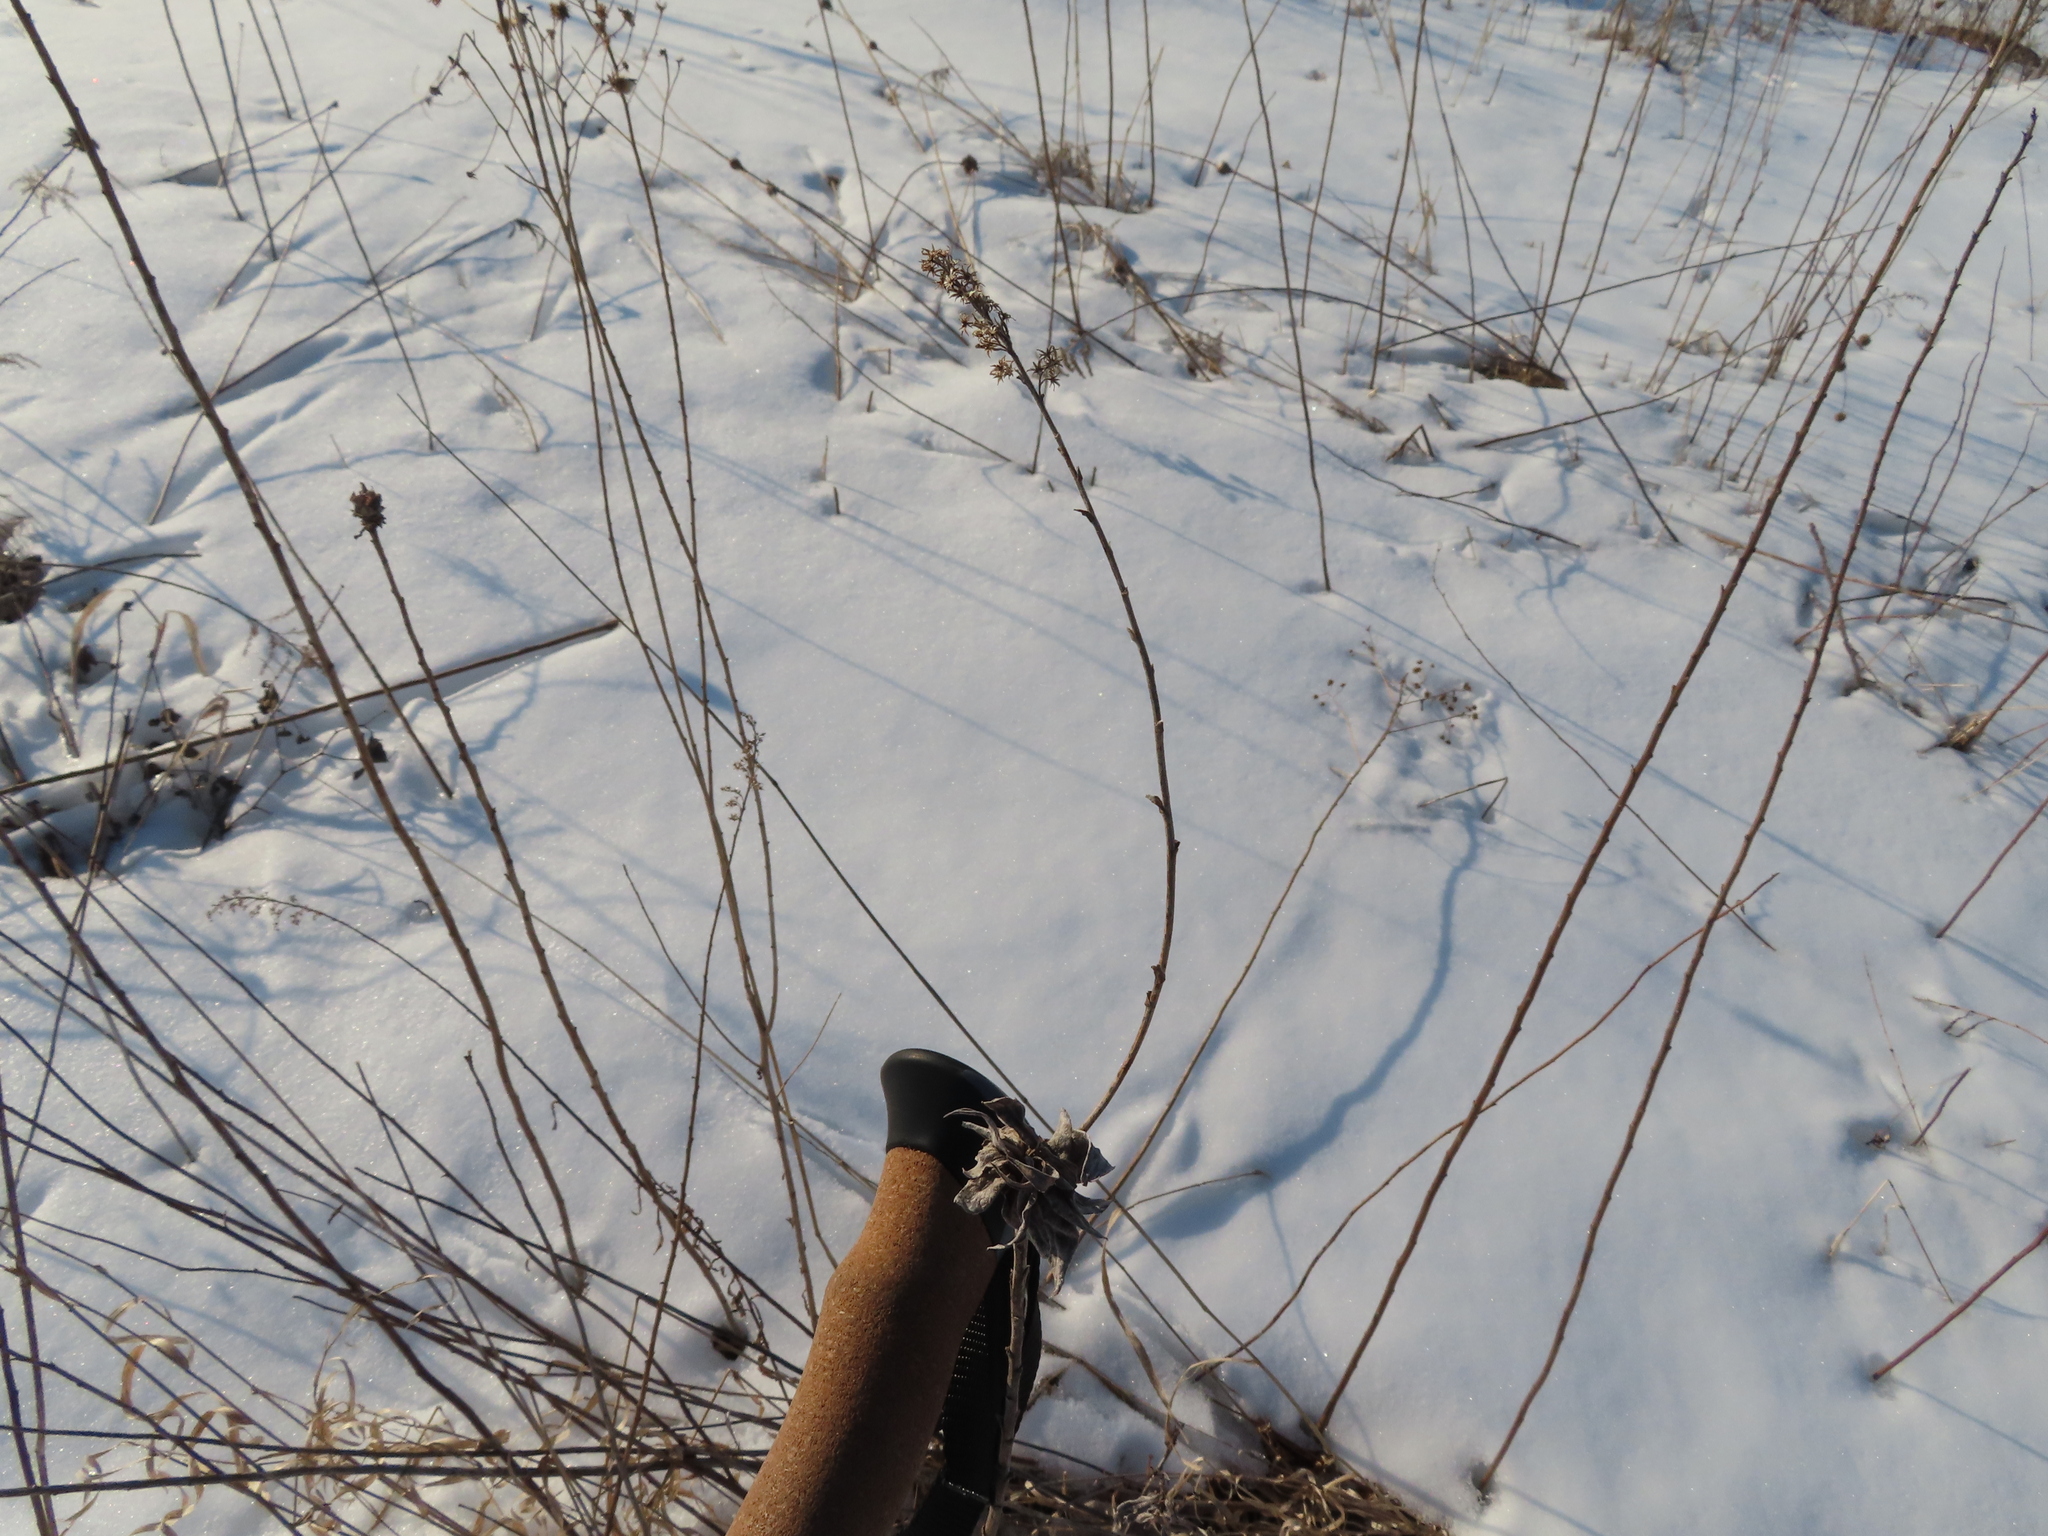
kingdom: Animalia
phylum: Arthropoda
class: Insecta
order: Diptera
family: Cecidomyiidae
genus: Rhopalomyia
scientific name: Rhopalomyia solidaginis
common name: Goldenrod bunch gall midge
